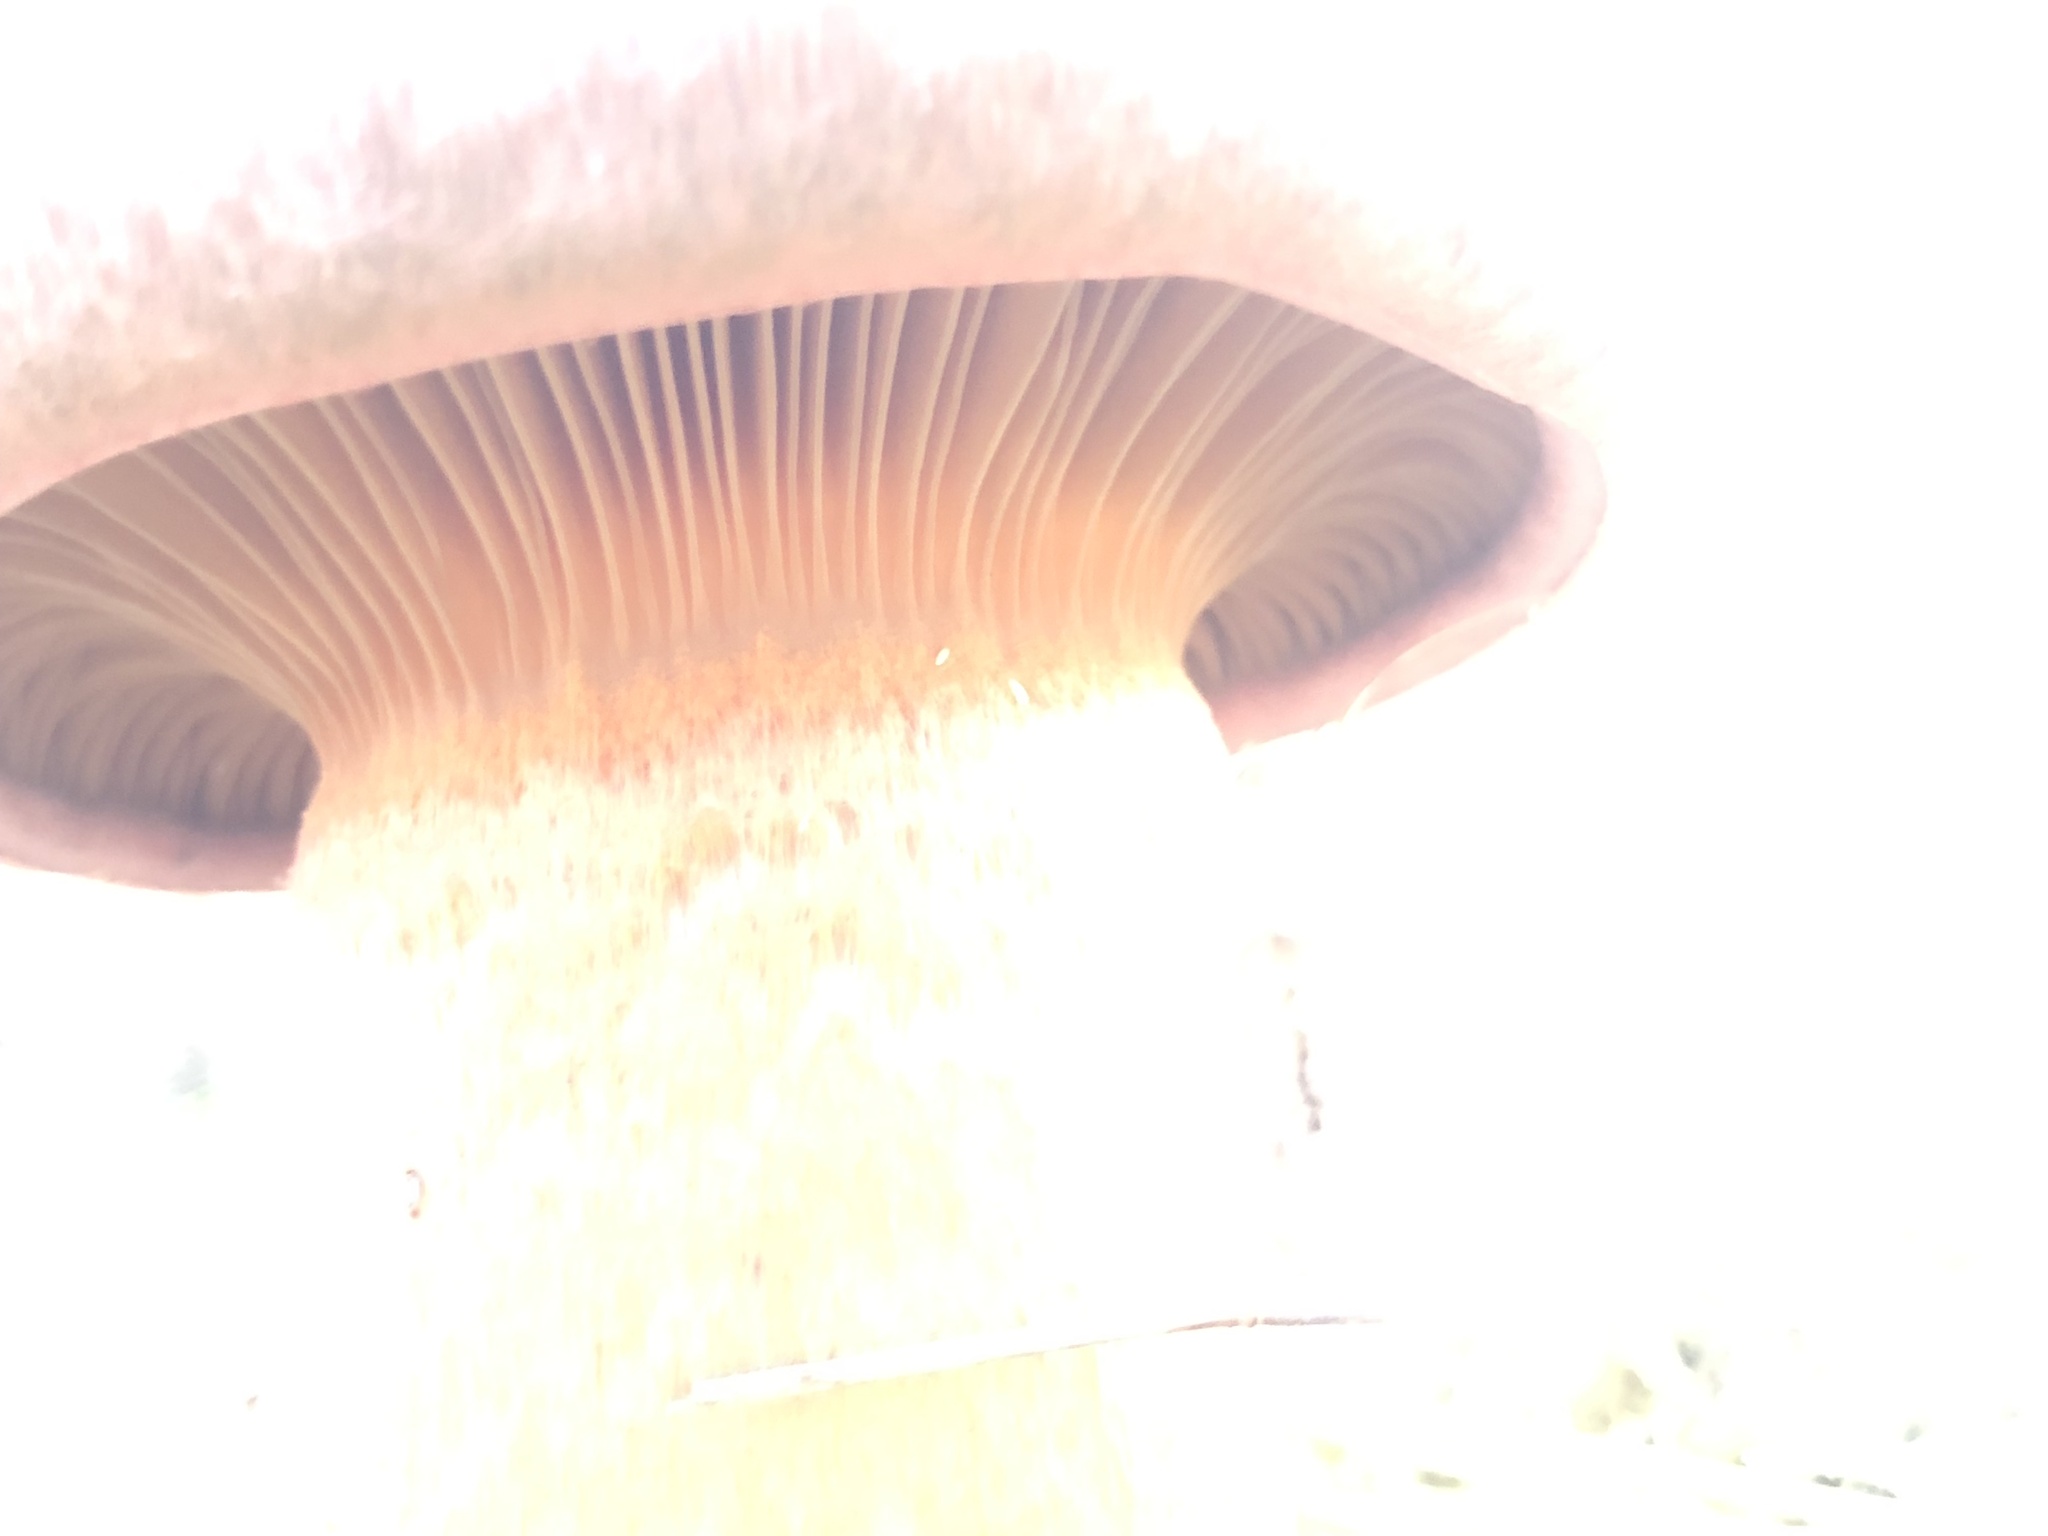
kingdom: Fungi
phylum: Basidiomycota
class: Agaricomycetes
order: Boletales
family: Gomphidiaceae
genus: Chroogomphus
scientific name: Chroogomphus vinicolor
